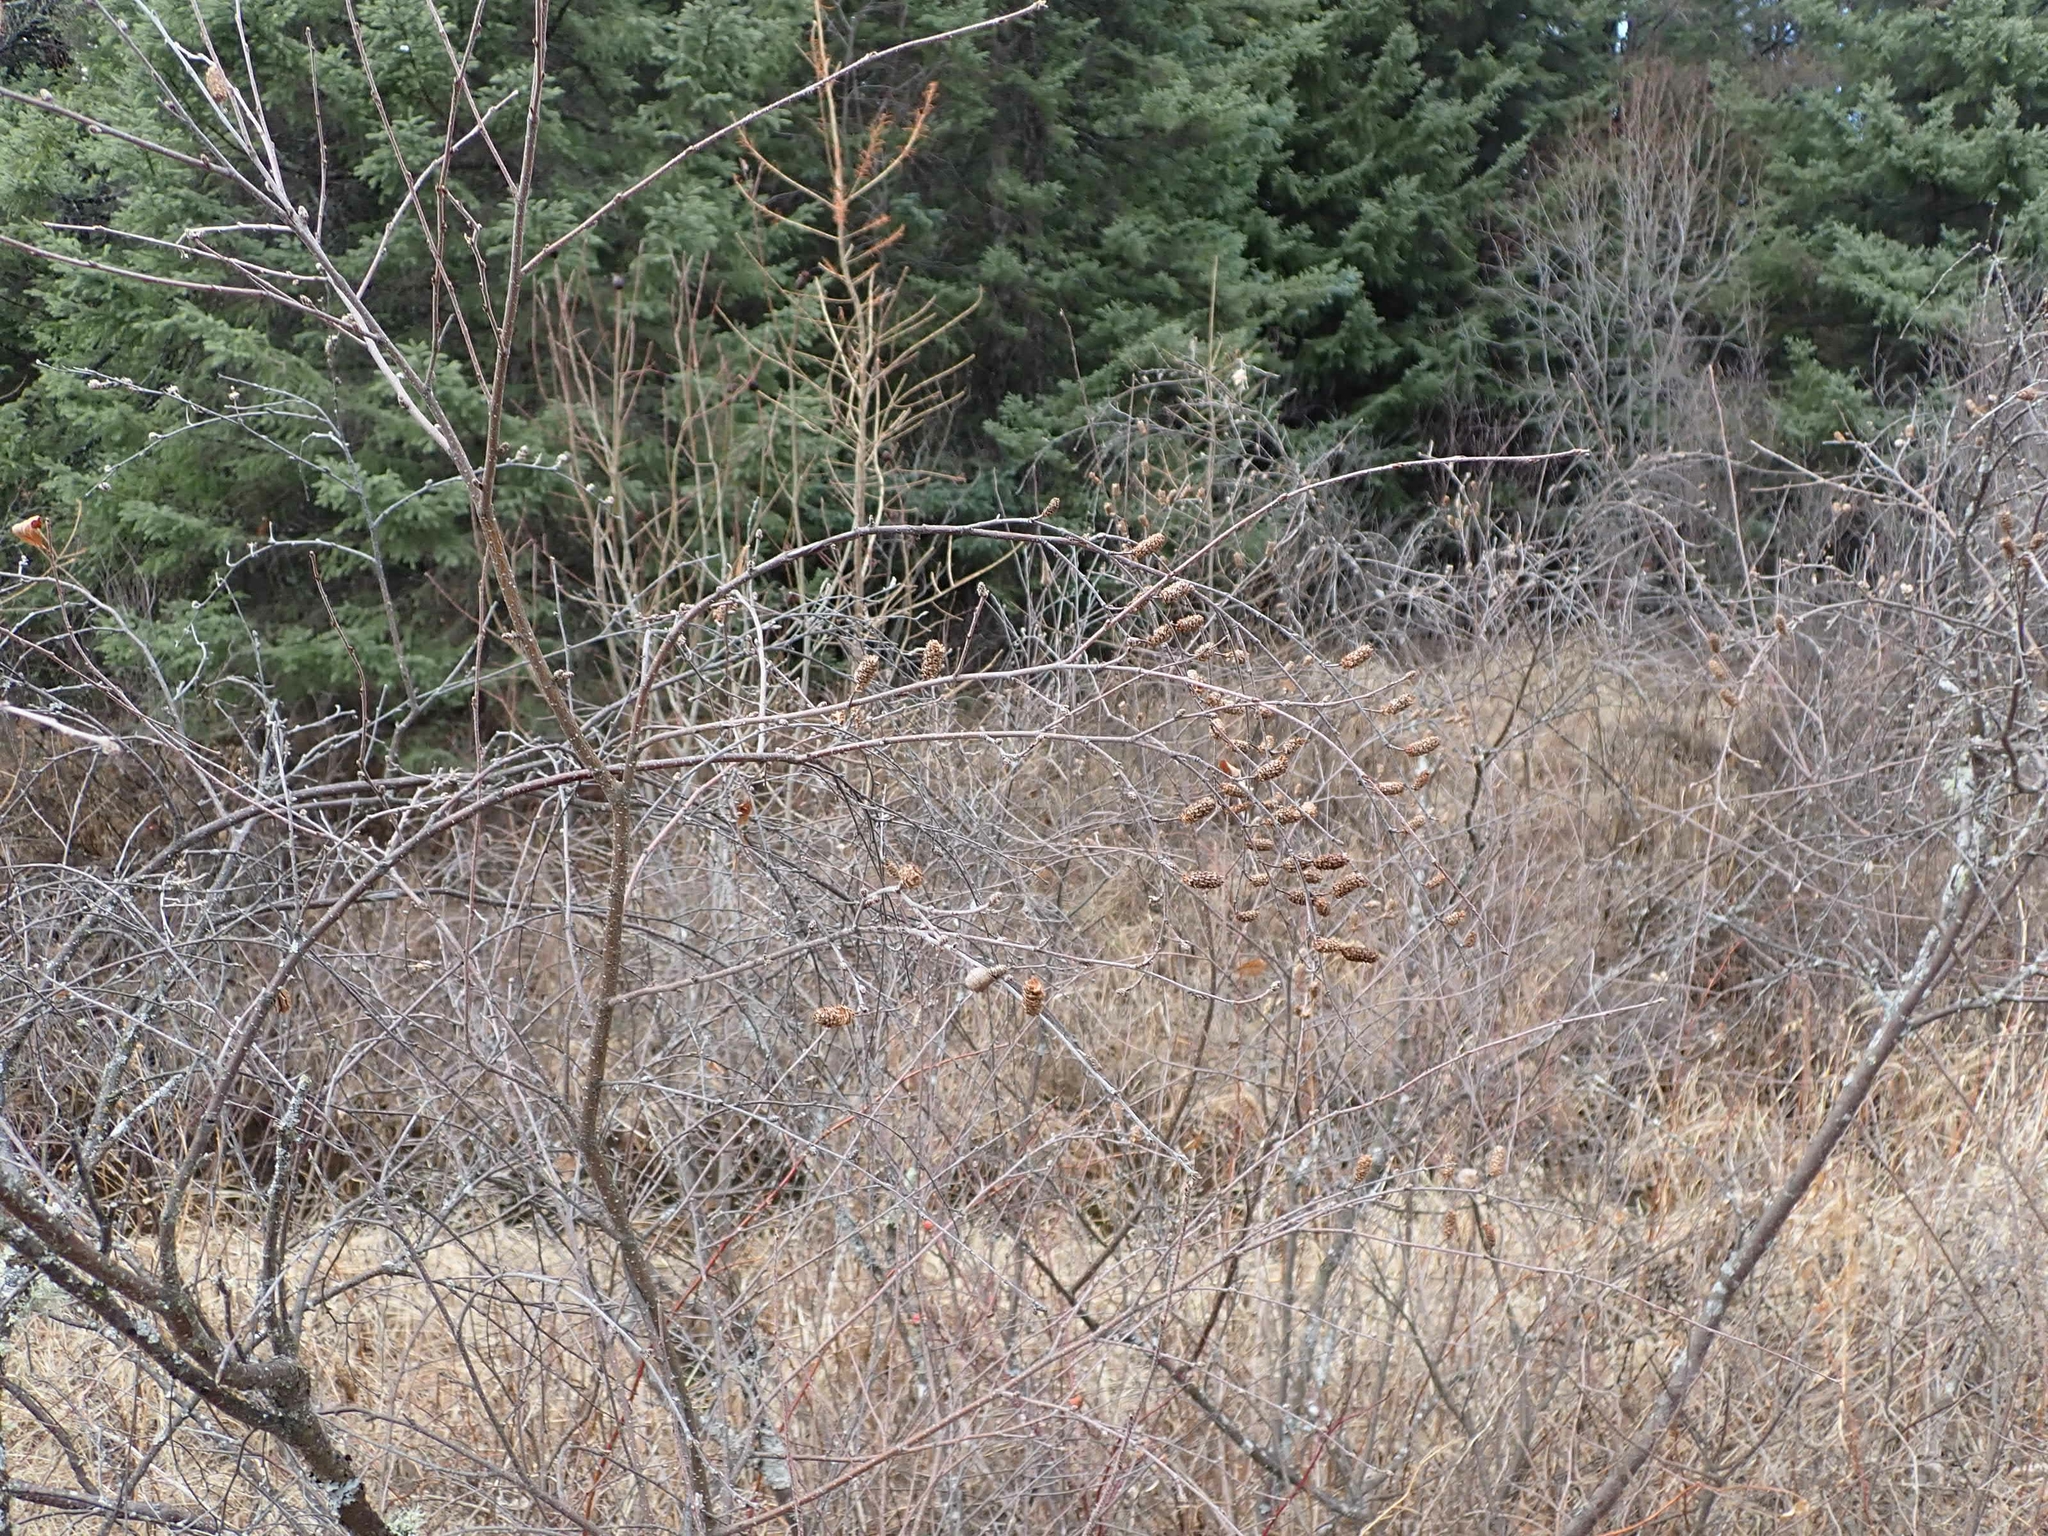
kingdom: Plantae
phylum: Tracheophyta
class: Magnoliopsida
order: Fagales
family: Betulaceae
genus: Alnus
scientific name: Alnus alnobetula
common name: Green alder
